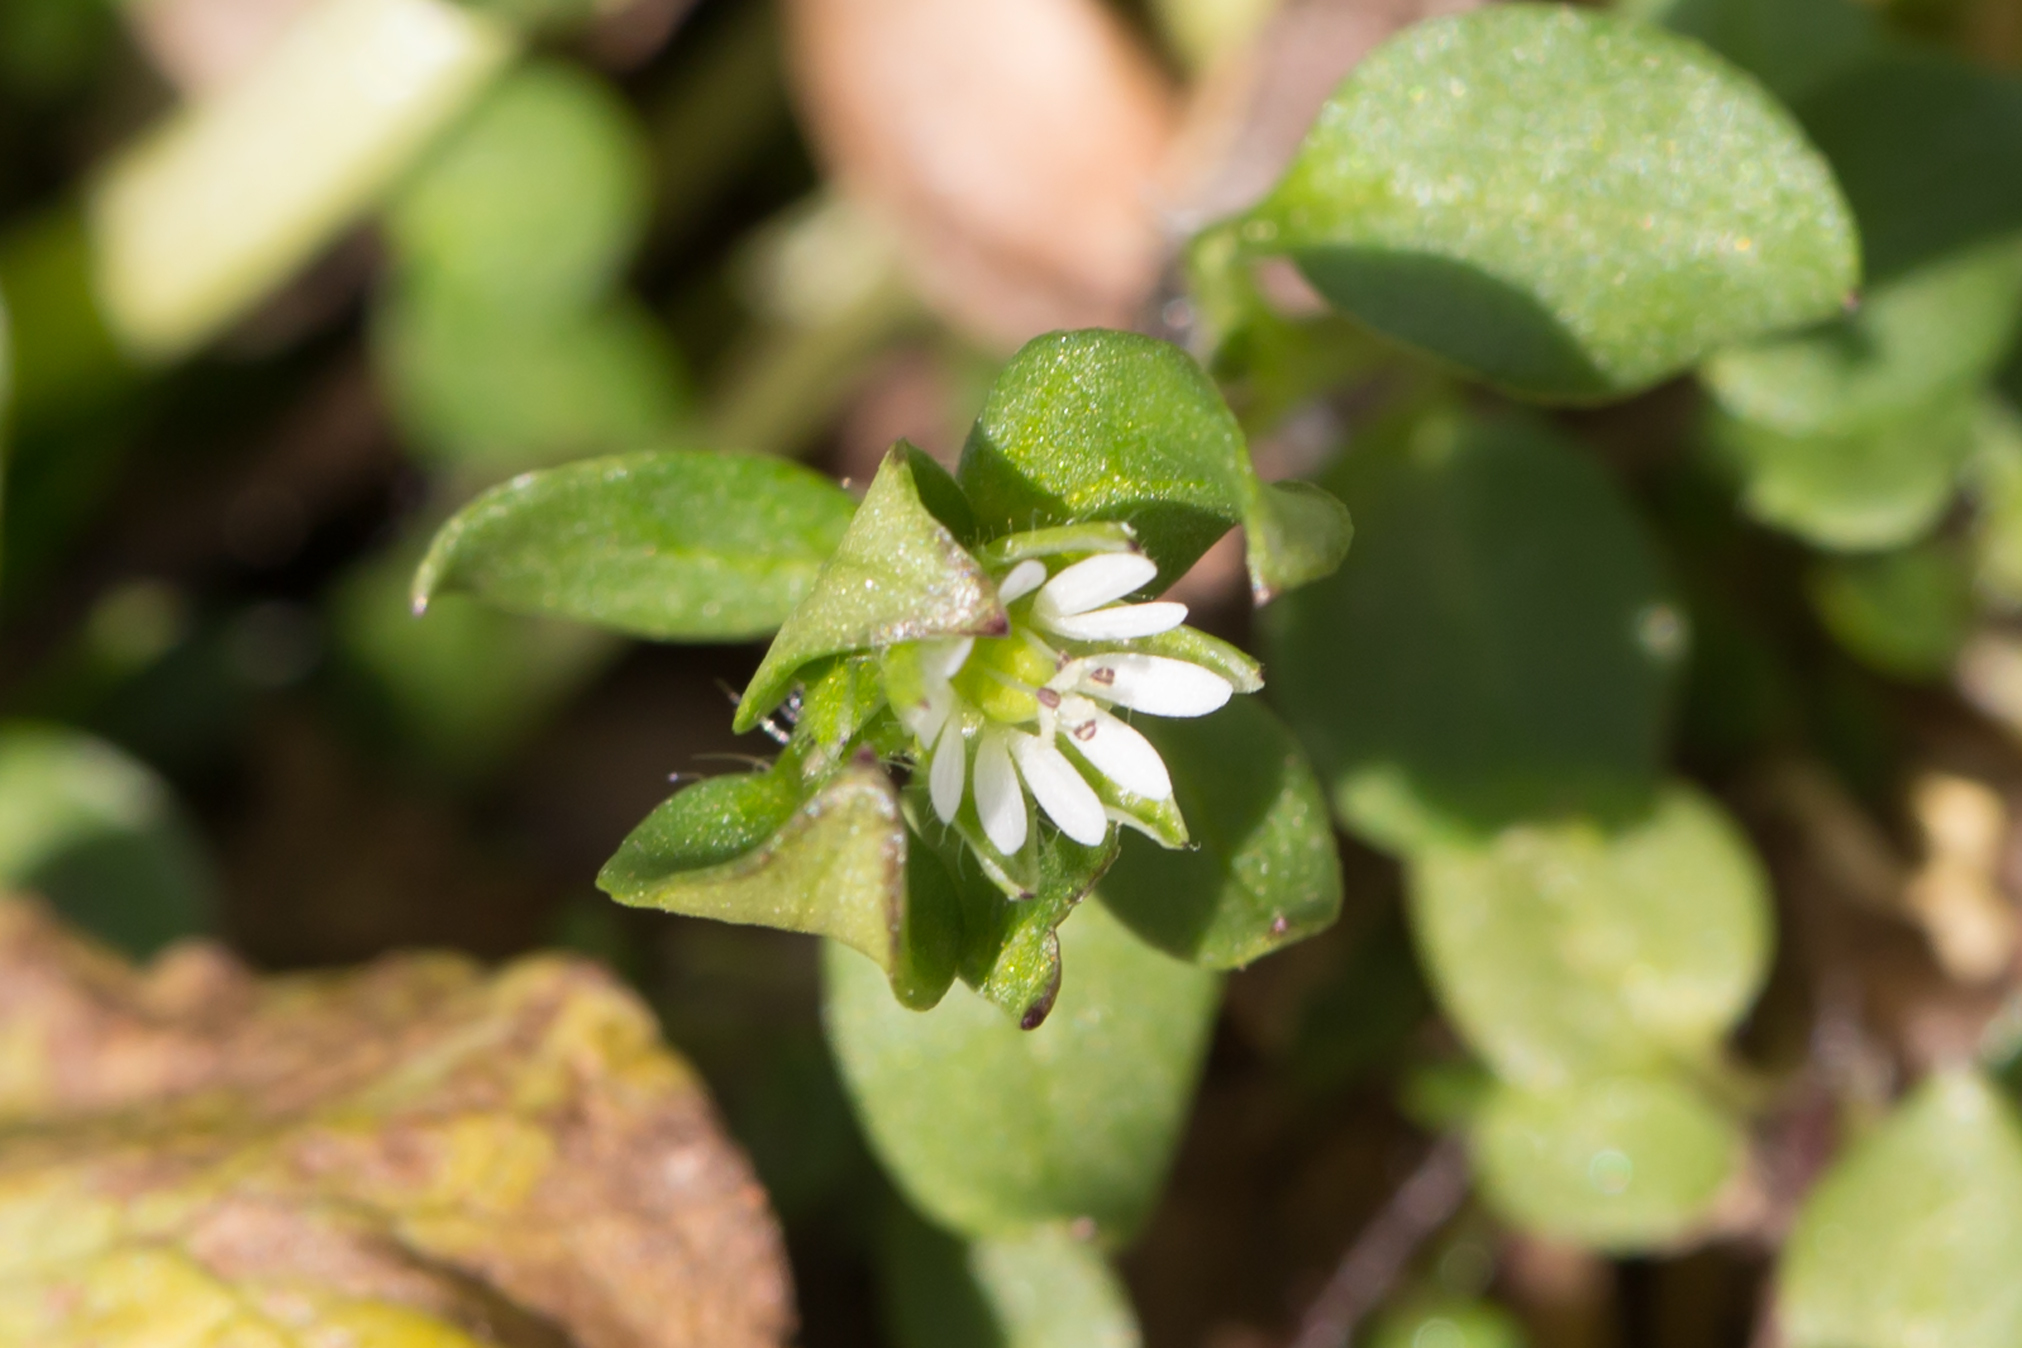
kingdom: Plantae
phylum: Tracheophyta
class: Magnoliopsida
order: Caryophyllales
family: Caryophyllaceae
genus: Stellaria
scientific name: Stellaria media
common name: Common chickweed
